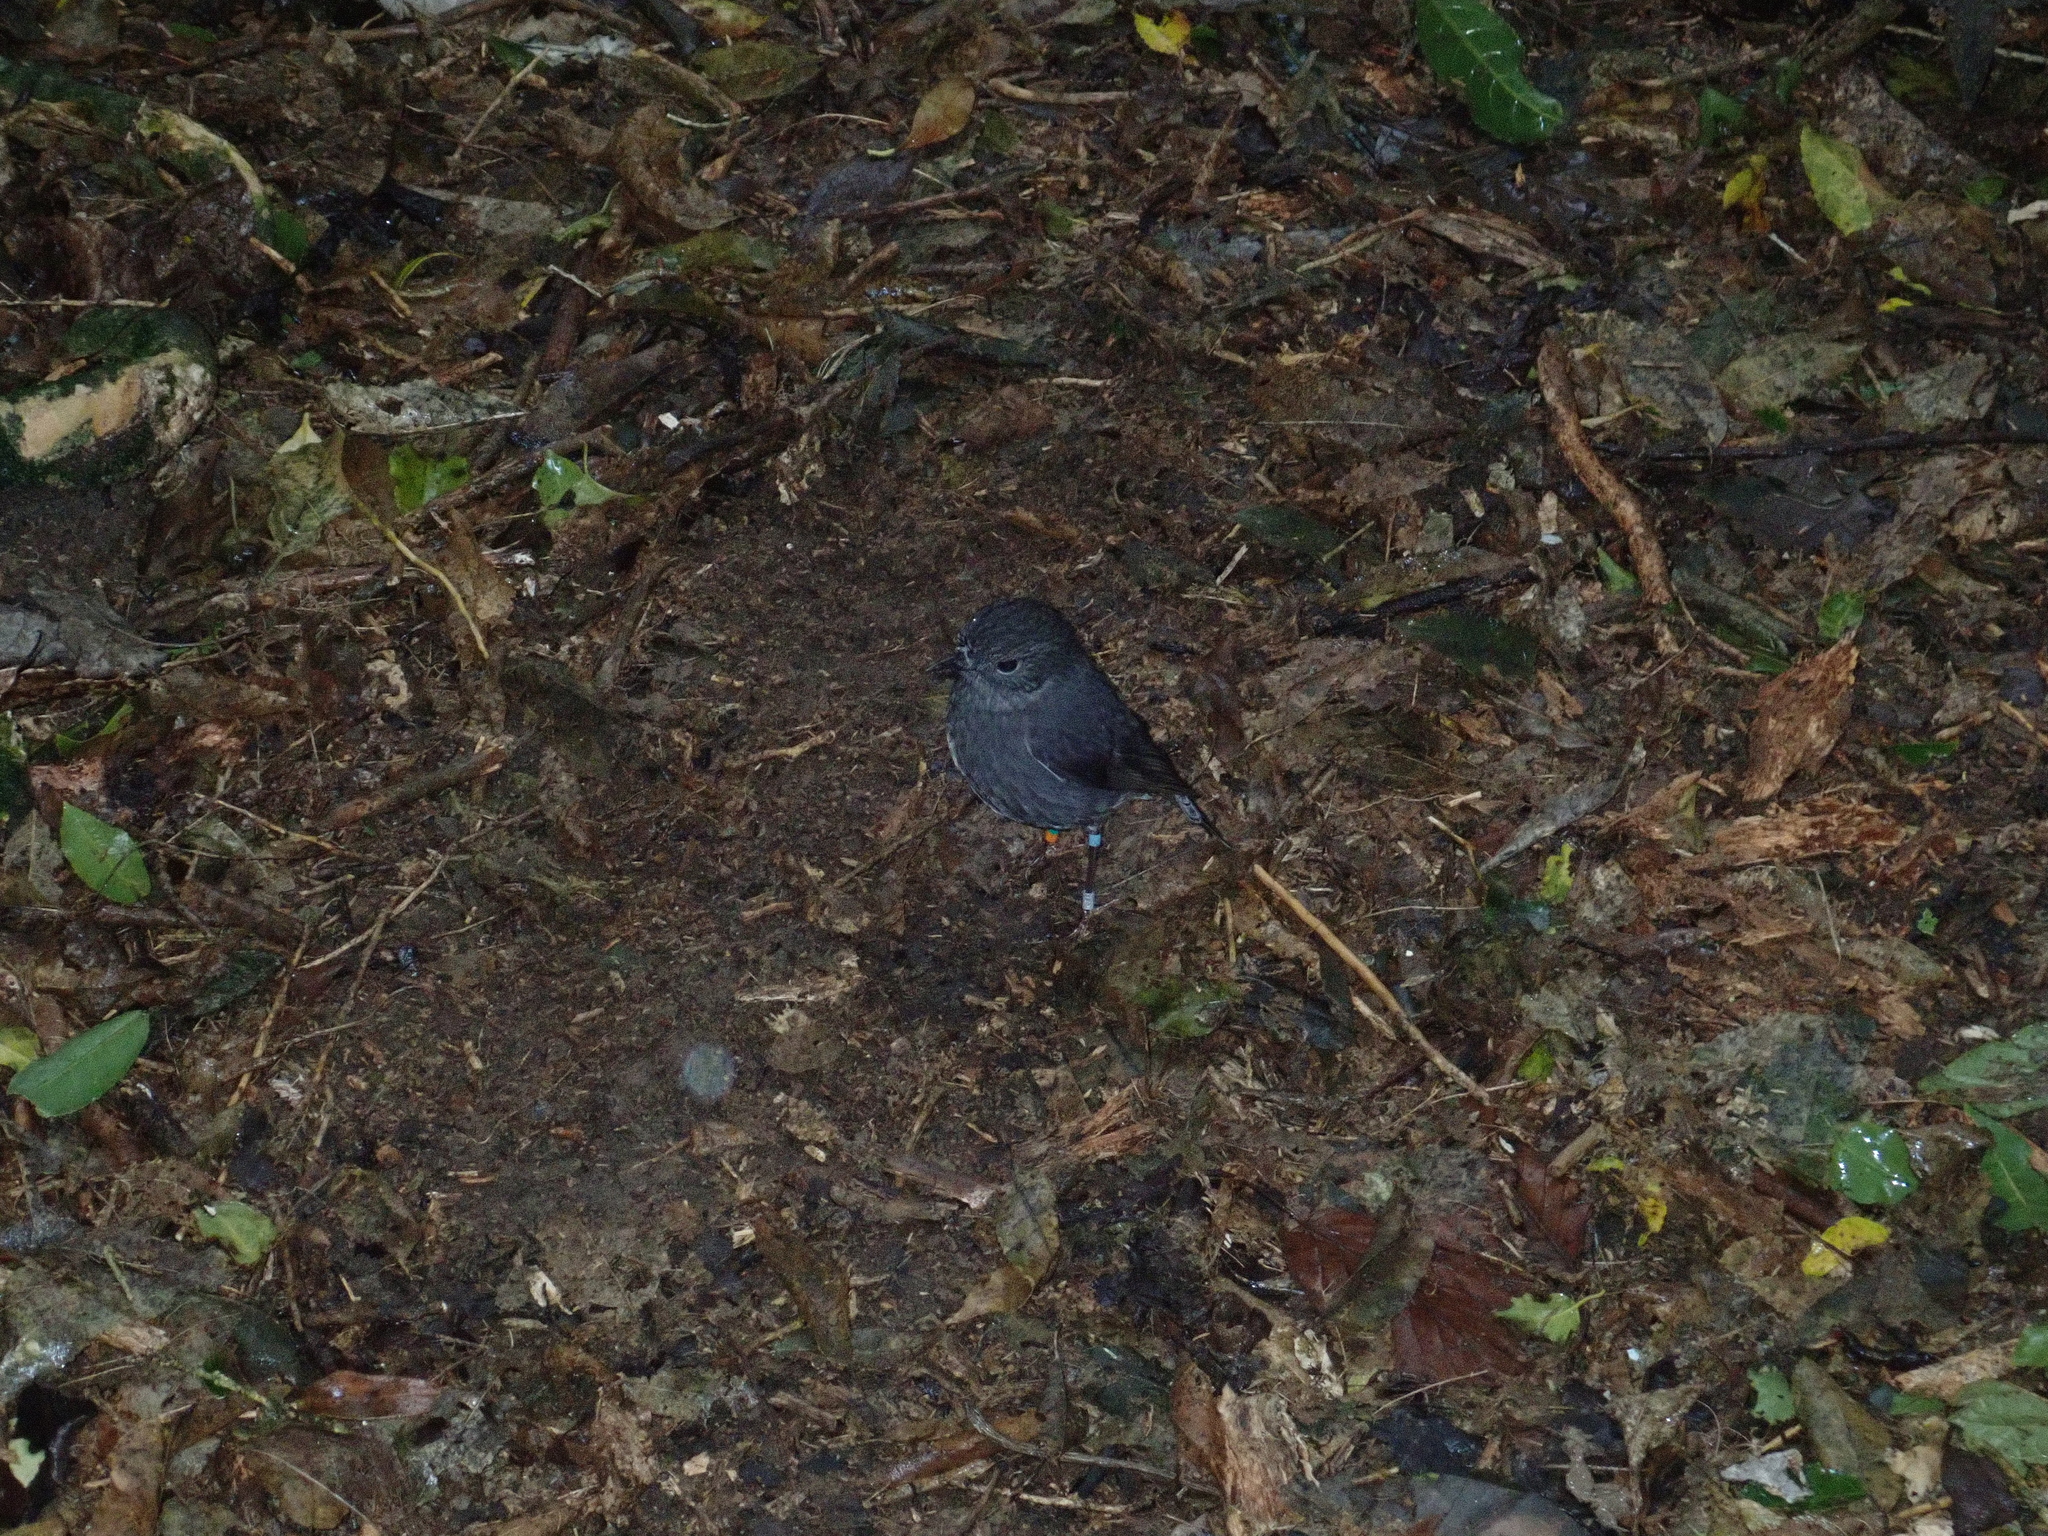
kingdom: Animalia
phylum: Chordata
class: Aves
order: Passeriformes
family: Petroicidae
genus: Petroica
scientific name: Petroica australis
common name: New zealand robin
